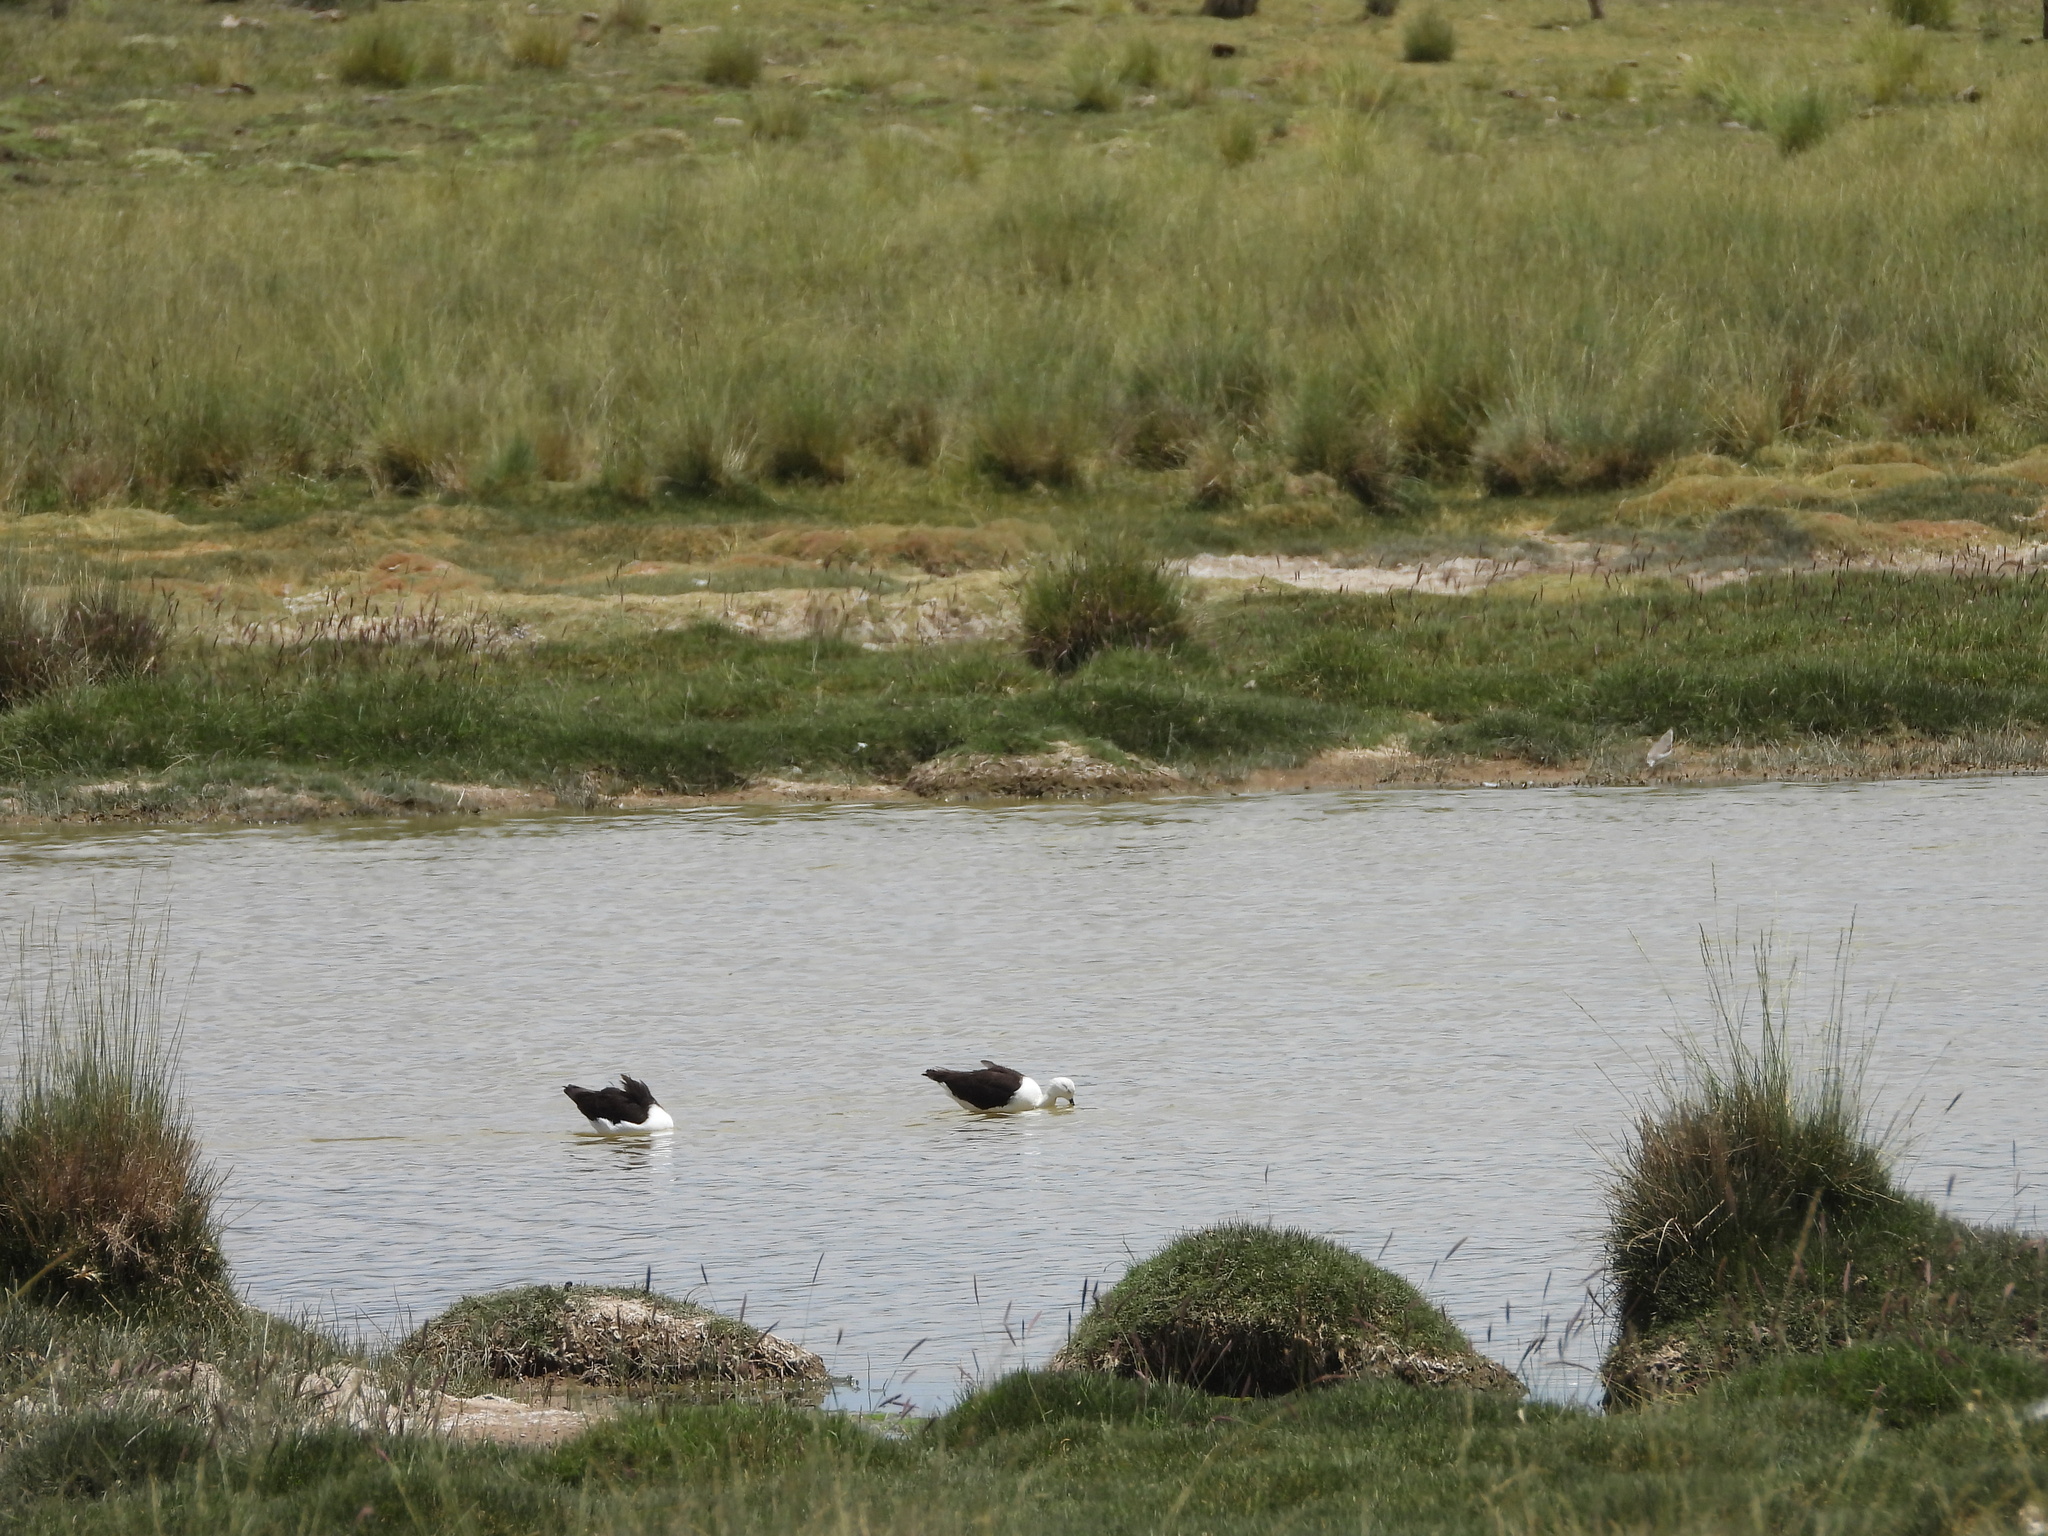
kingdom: Animalia
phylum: Chordata
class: Aves
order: Charadriiformes
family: Recurvirostridae
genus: Recurvirostra
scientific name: Recurvirostra andina
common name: Andean avocet
